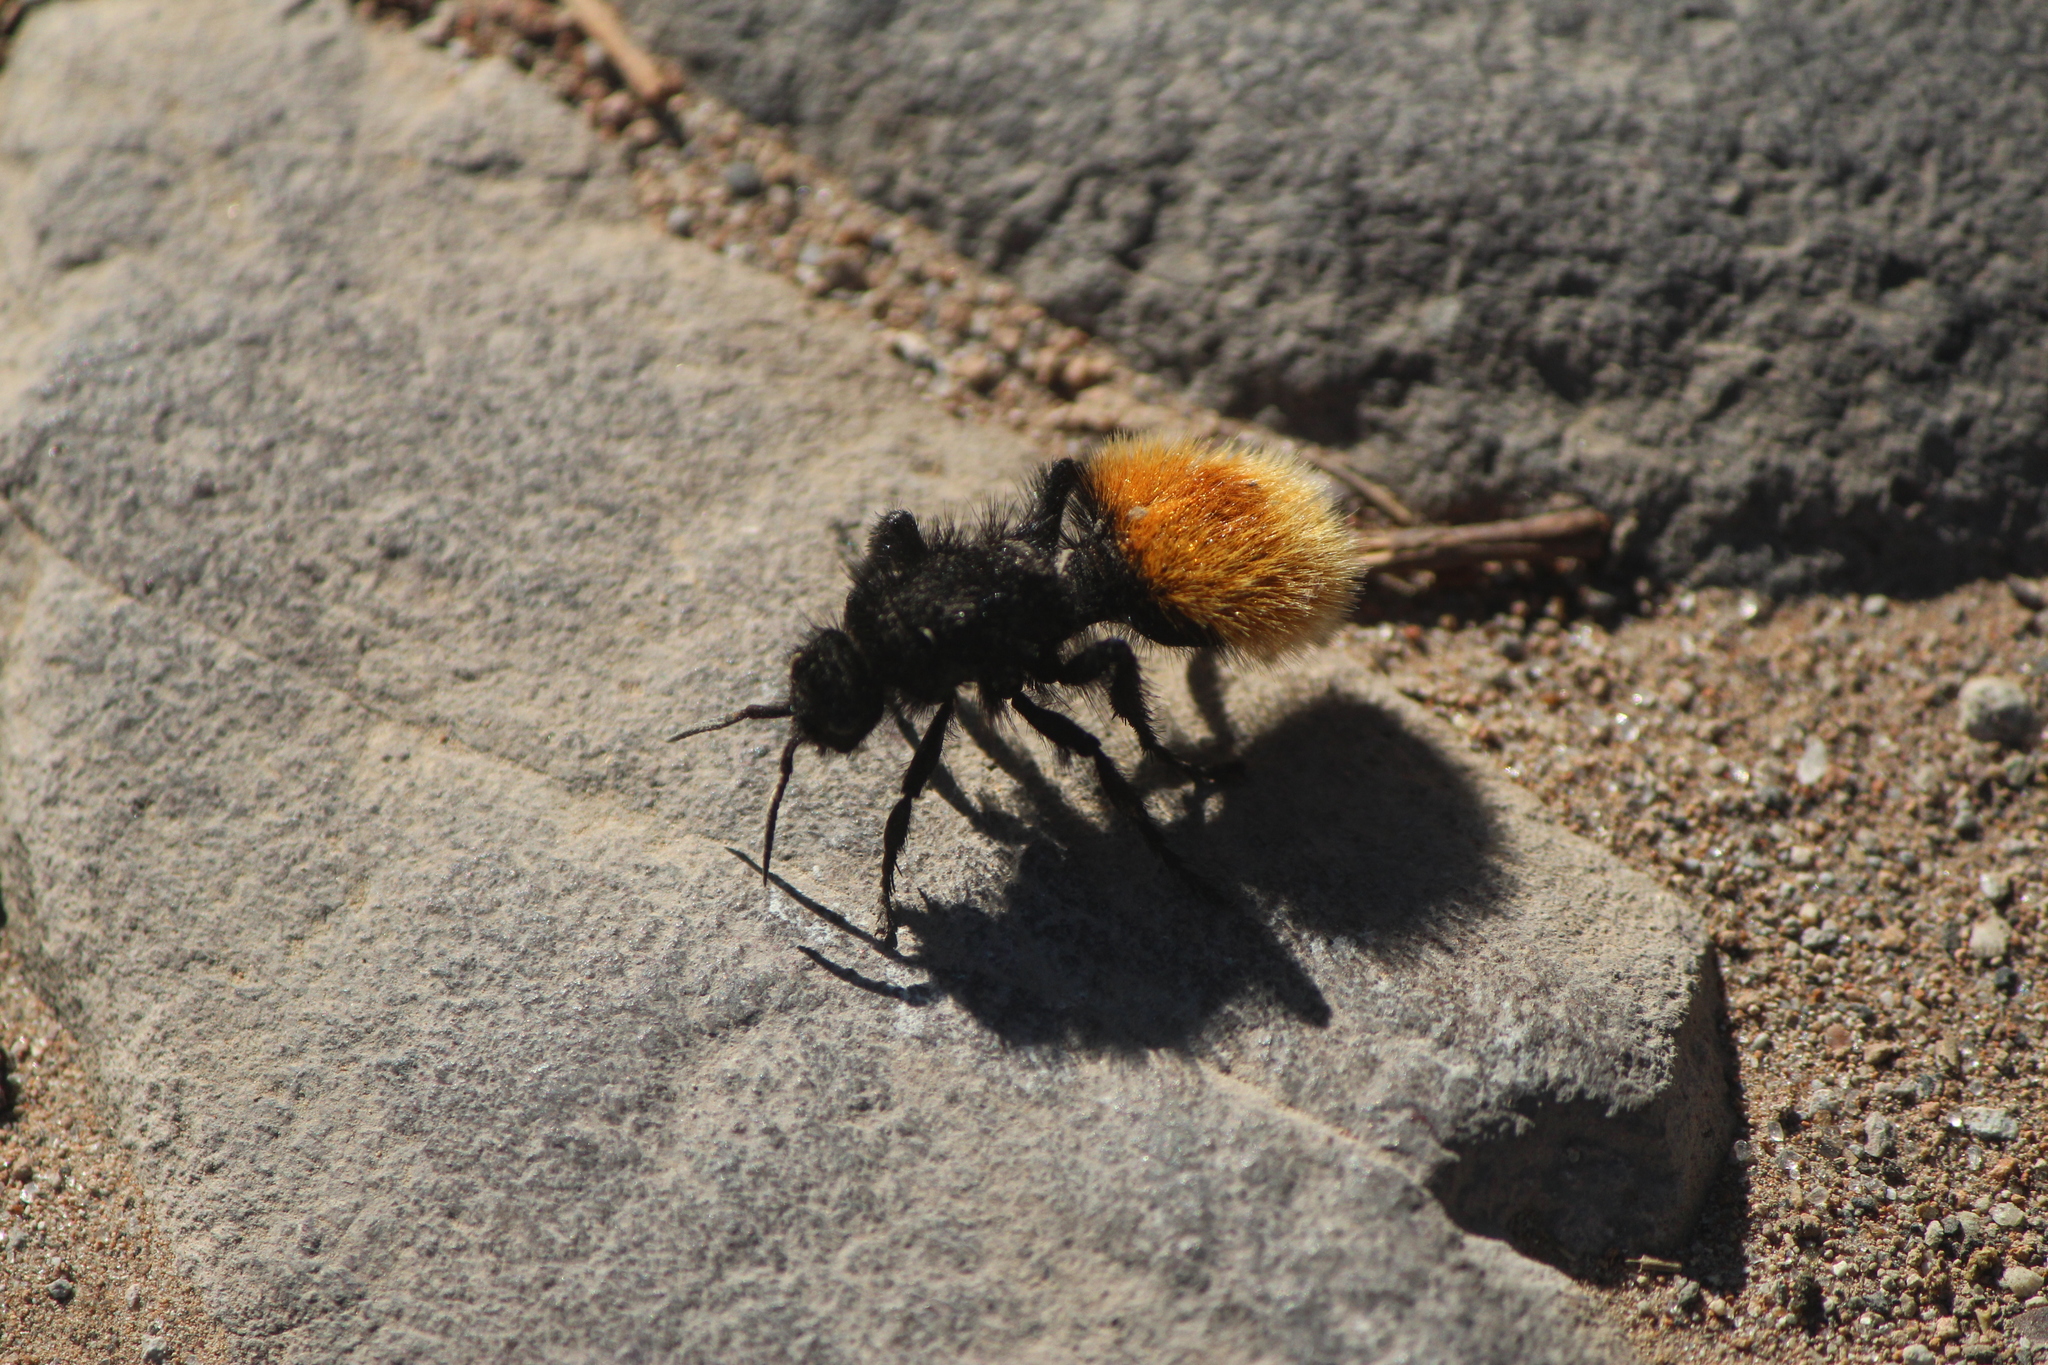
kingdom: Animalia
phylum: Arthropoda
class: Insecta
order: Hymenoptera
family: Mutillidae
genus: Dasymutilla
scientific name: Dasymutilla
